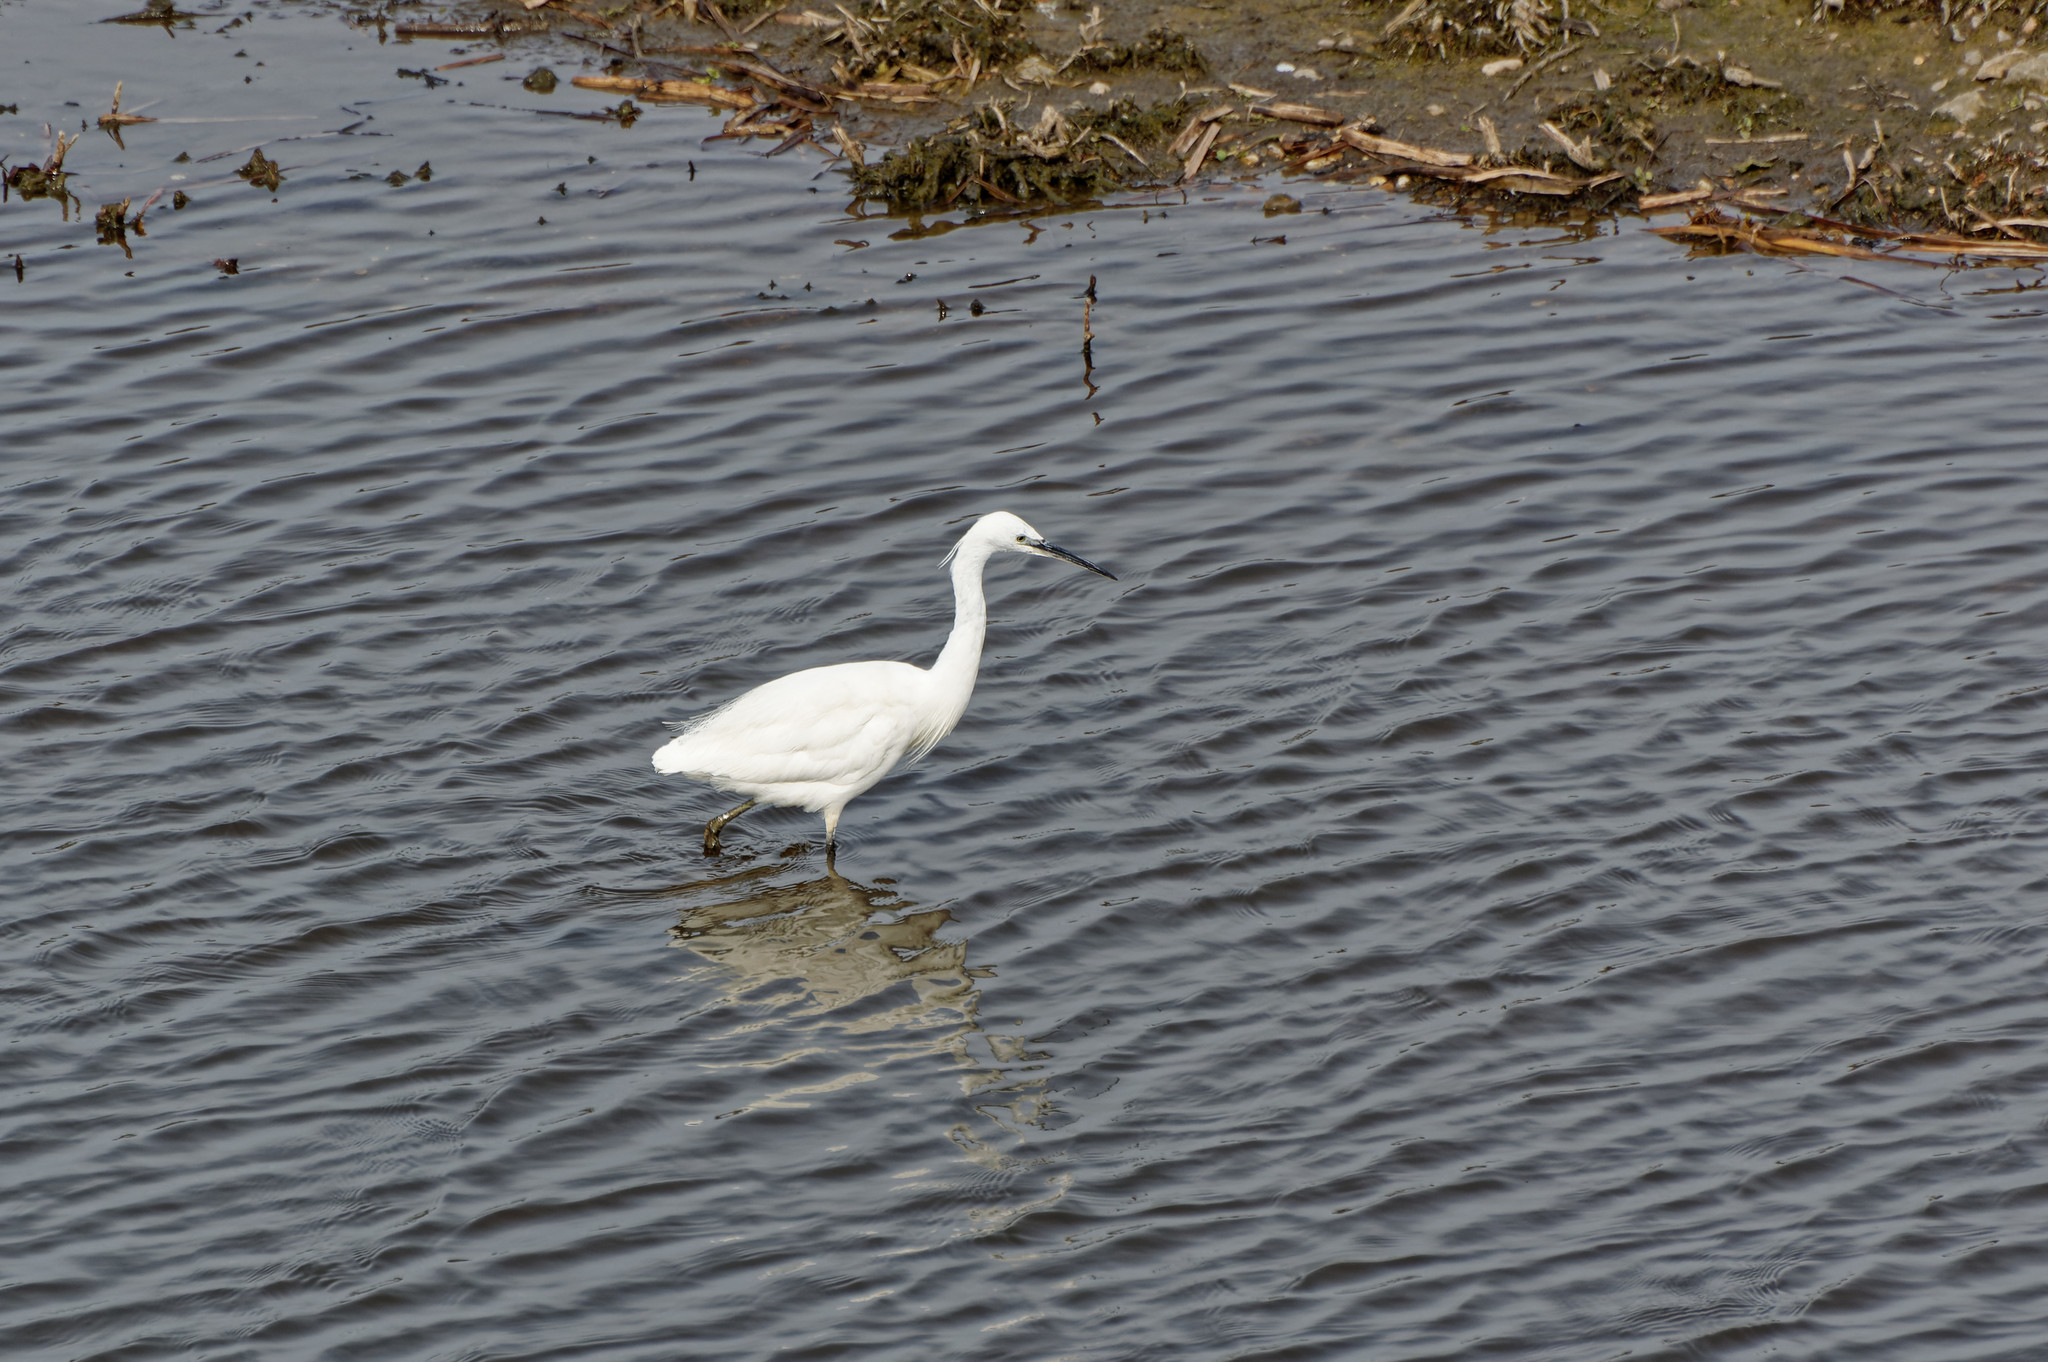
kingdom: Animalia
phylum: Chordata
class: Aves
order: Pelecaniformes
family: Ardeidae
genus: Egretta
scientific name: Egretta garzetta
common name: Little egret
